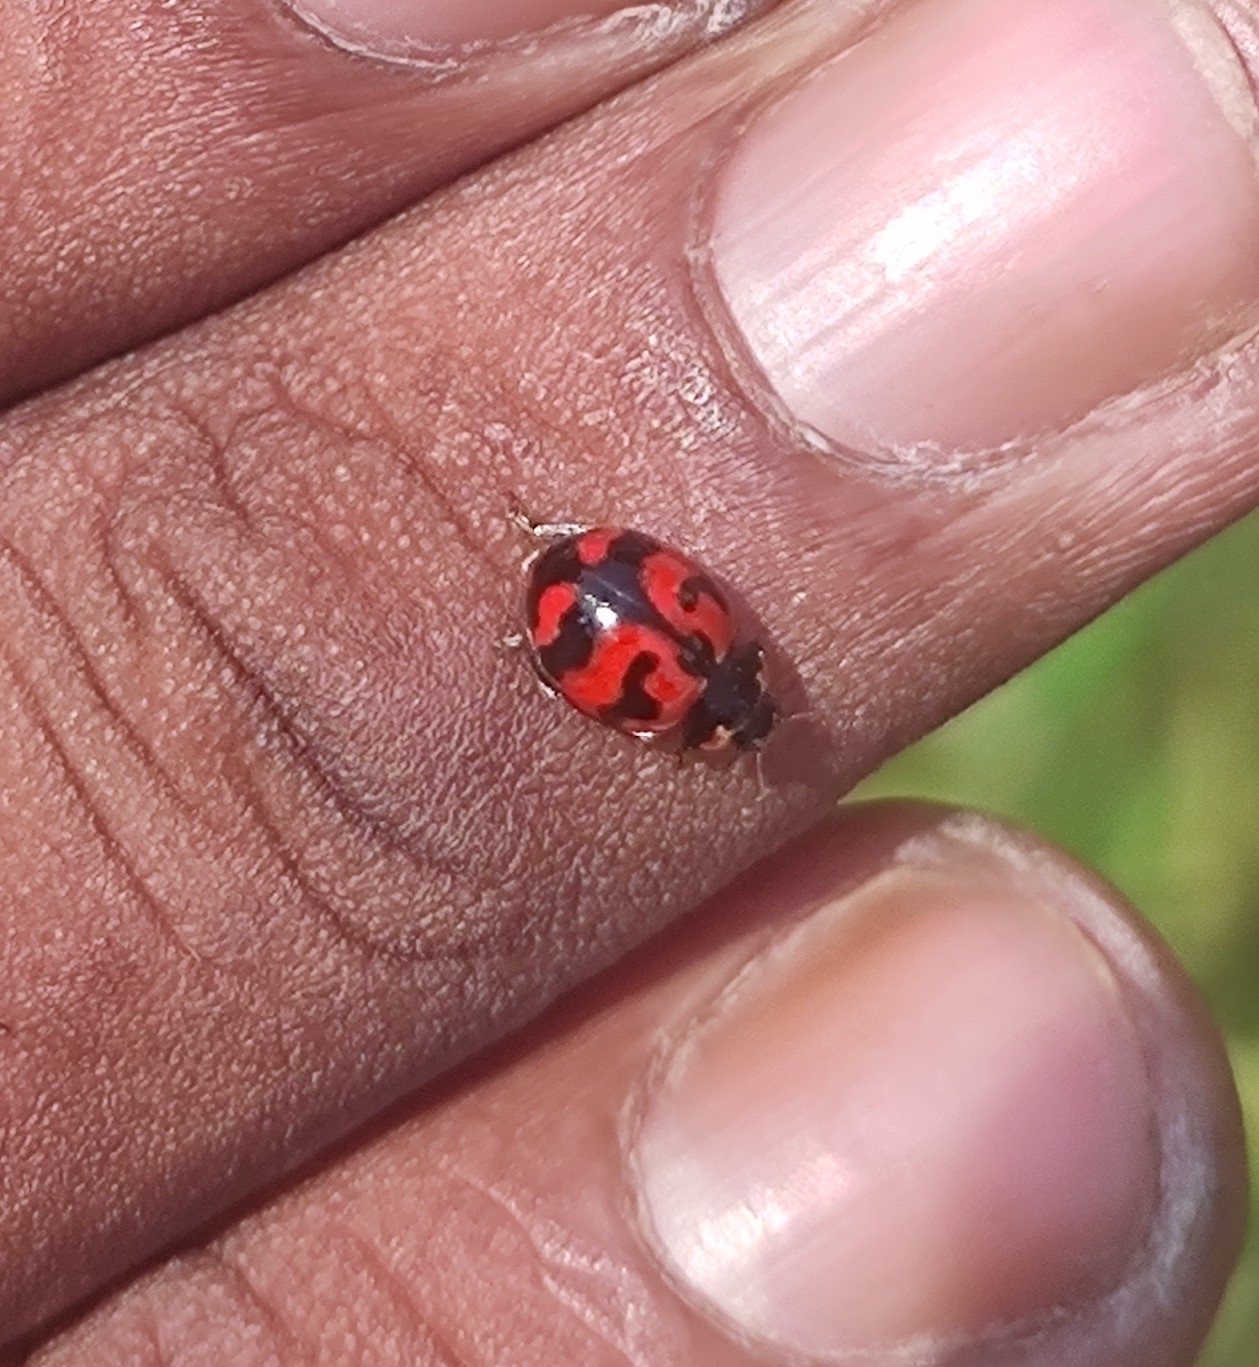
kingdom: Animalia
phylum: Arthropoda
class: Insecta
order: Coleoptera
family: Coccinellidae
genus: Coccinella
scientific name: Coccinella transversalis
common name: Transverse lady beetle
